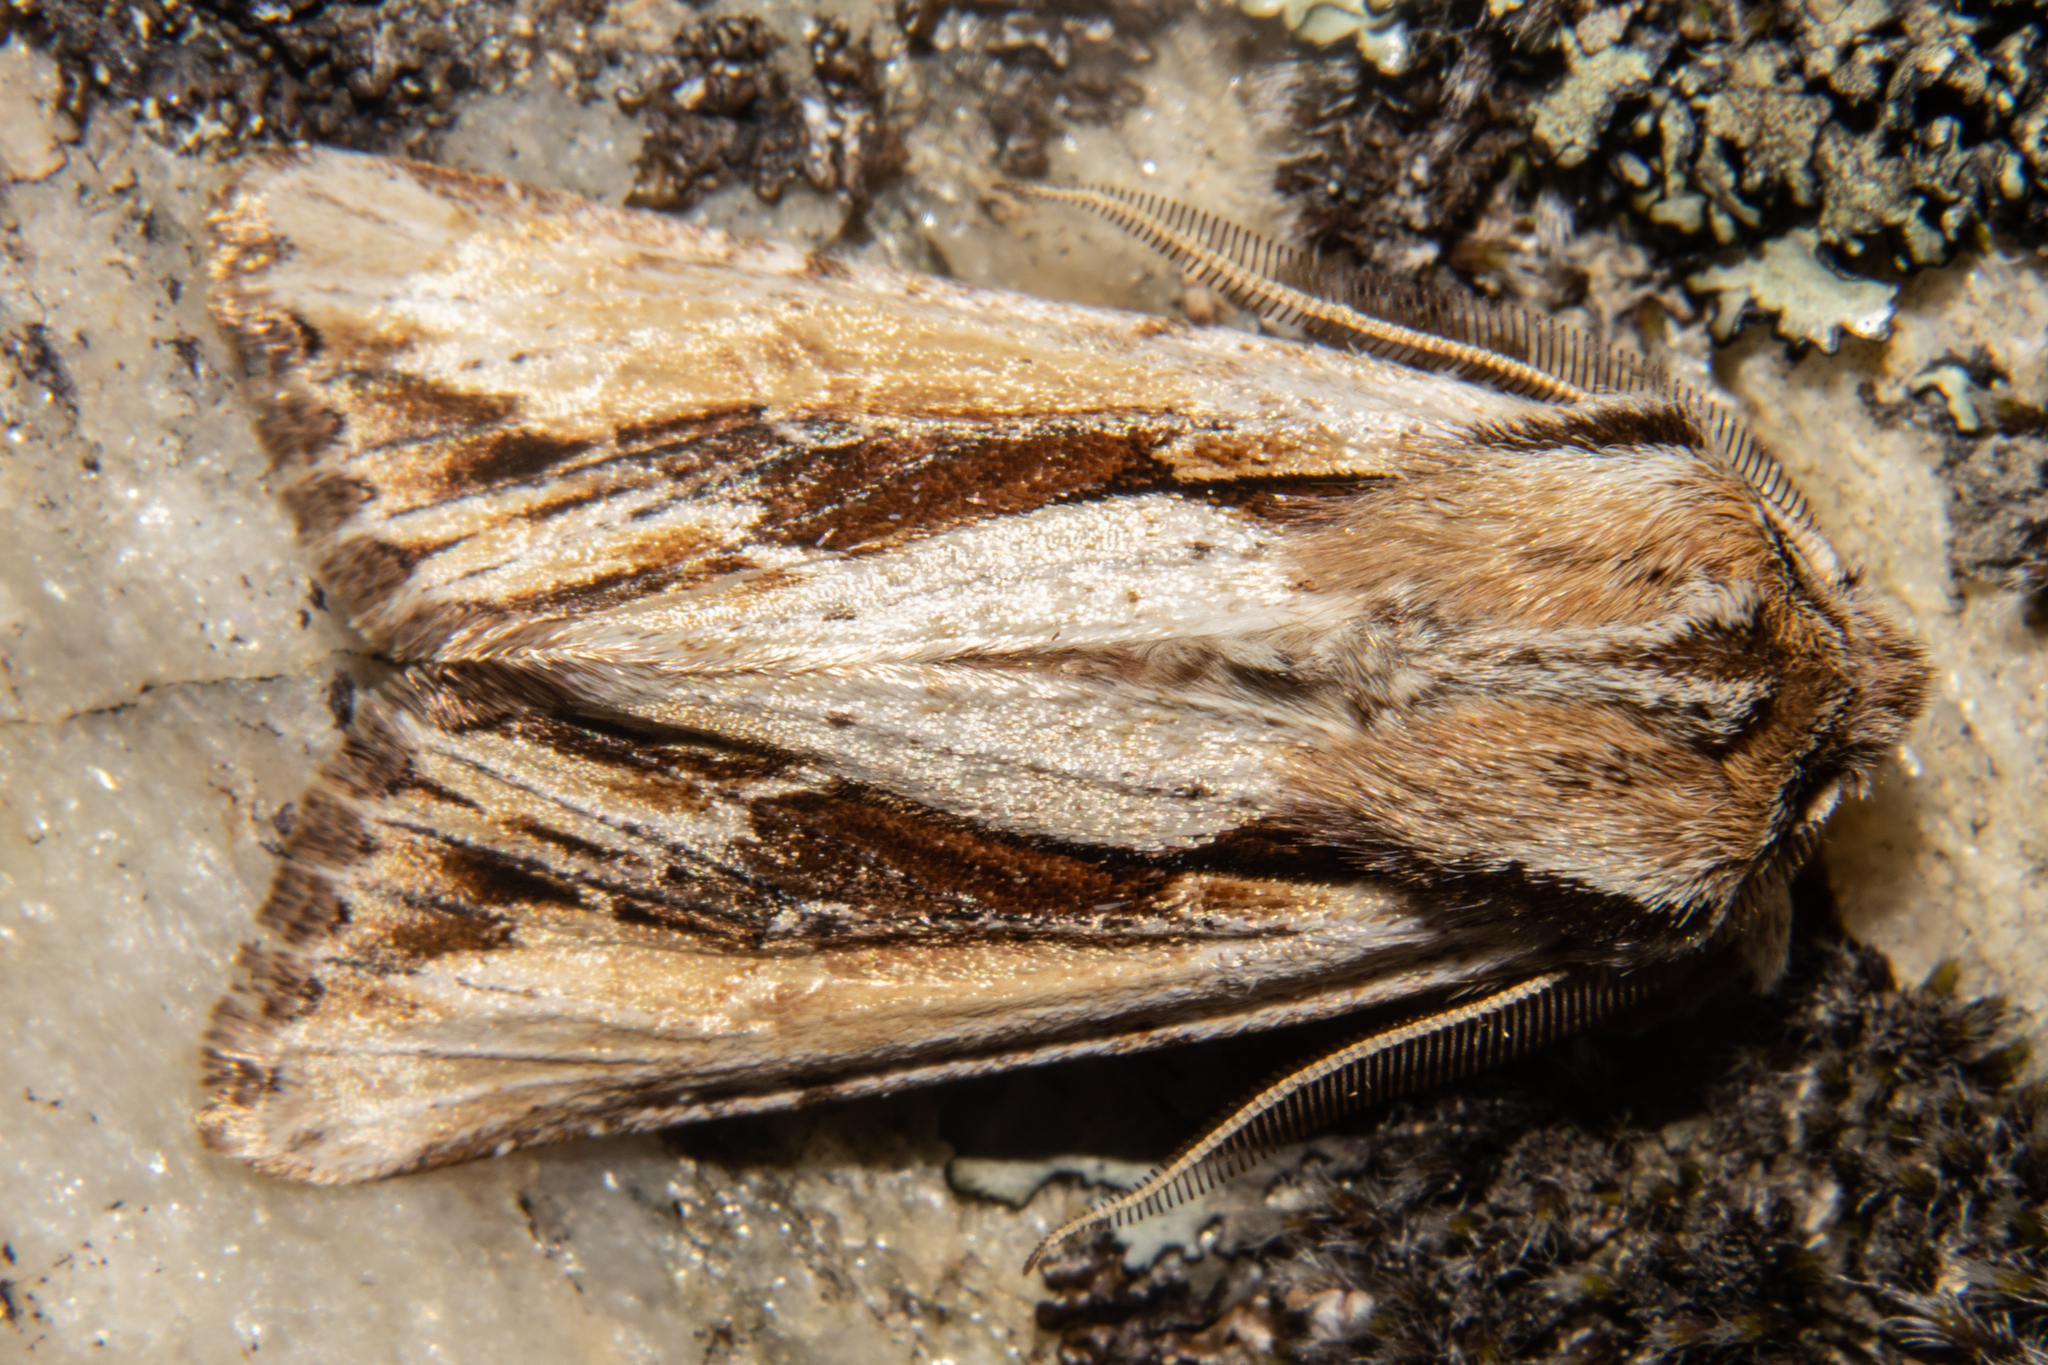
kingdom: Animalia
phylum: Arthropoda
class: Insecta
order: Lepidoptera
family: Noctuidae
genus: Ichneutica
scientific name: Ichneutica
